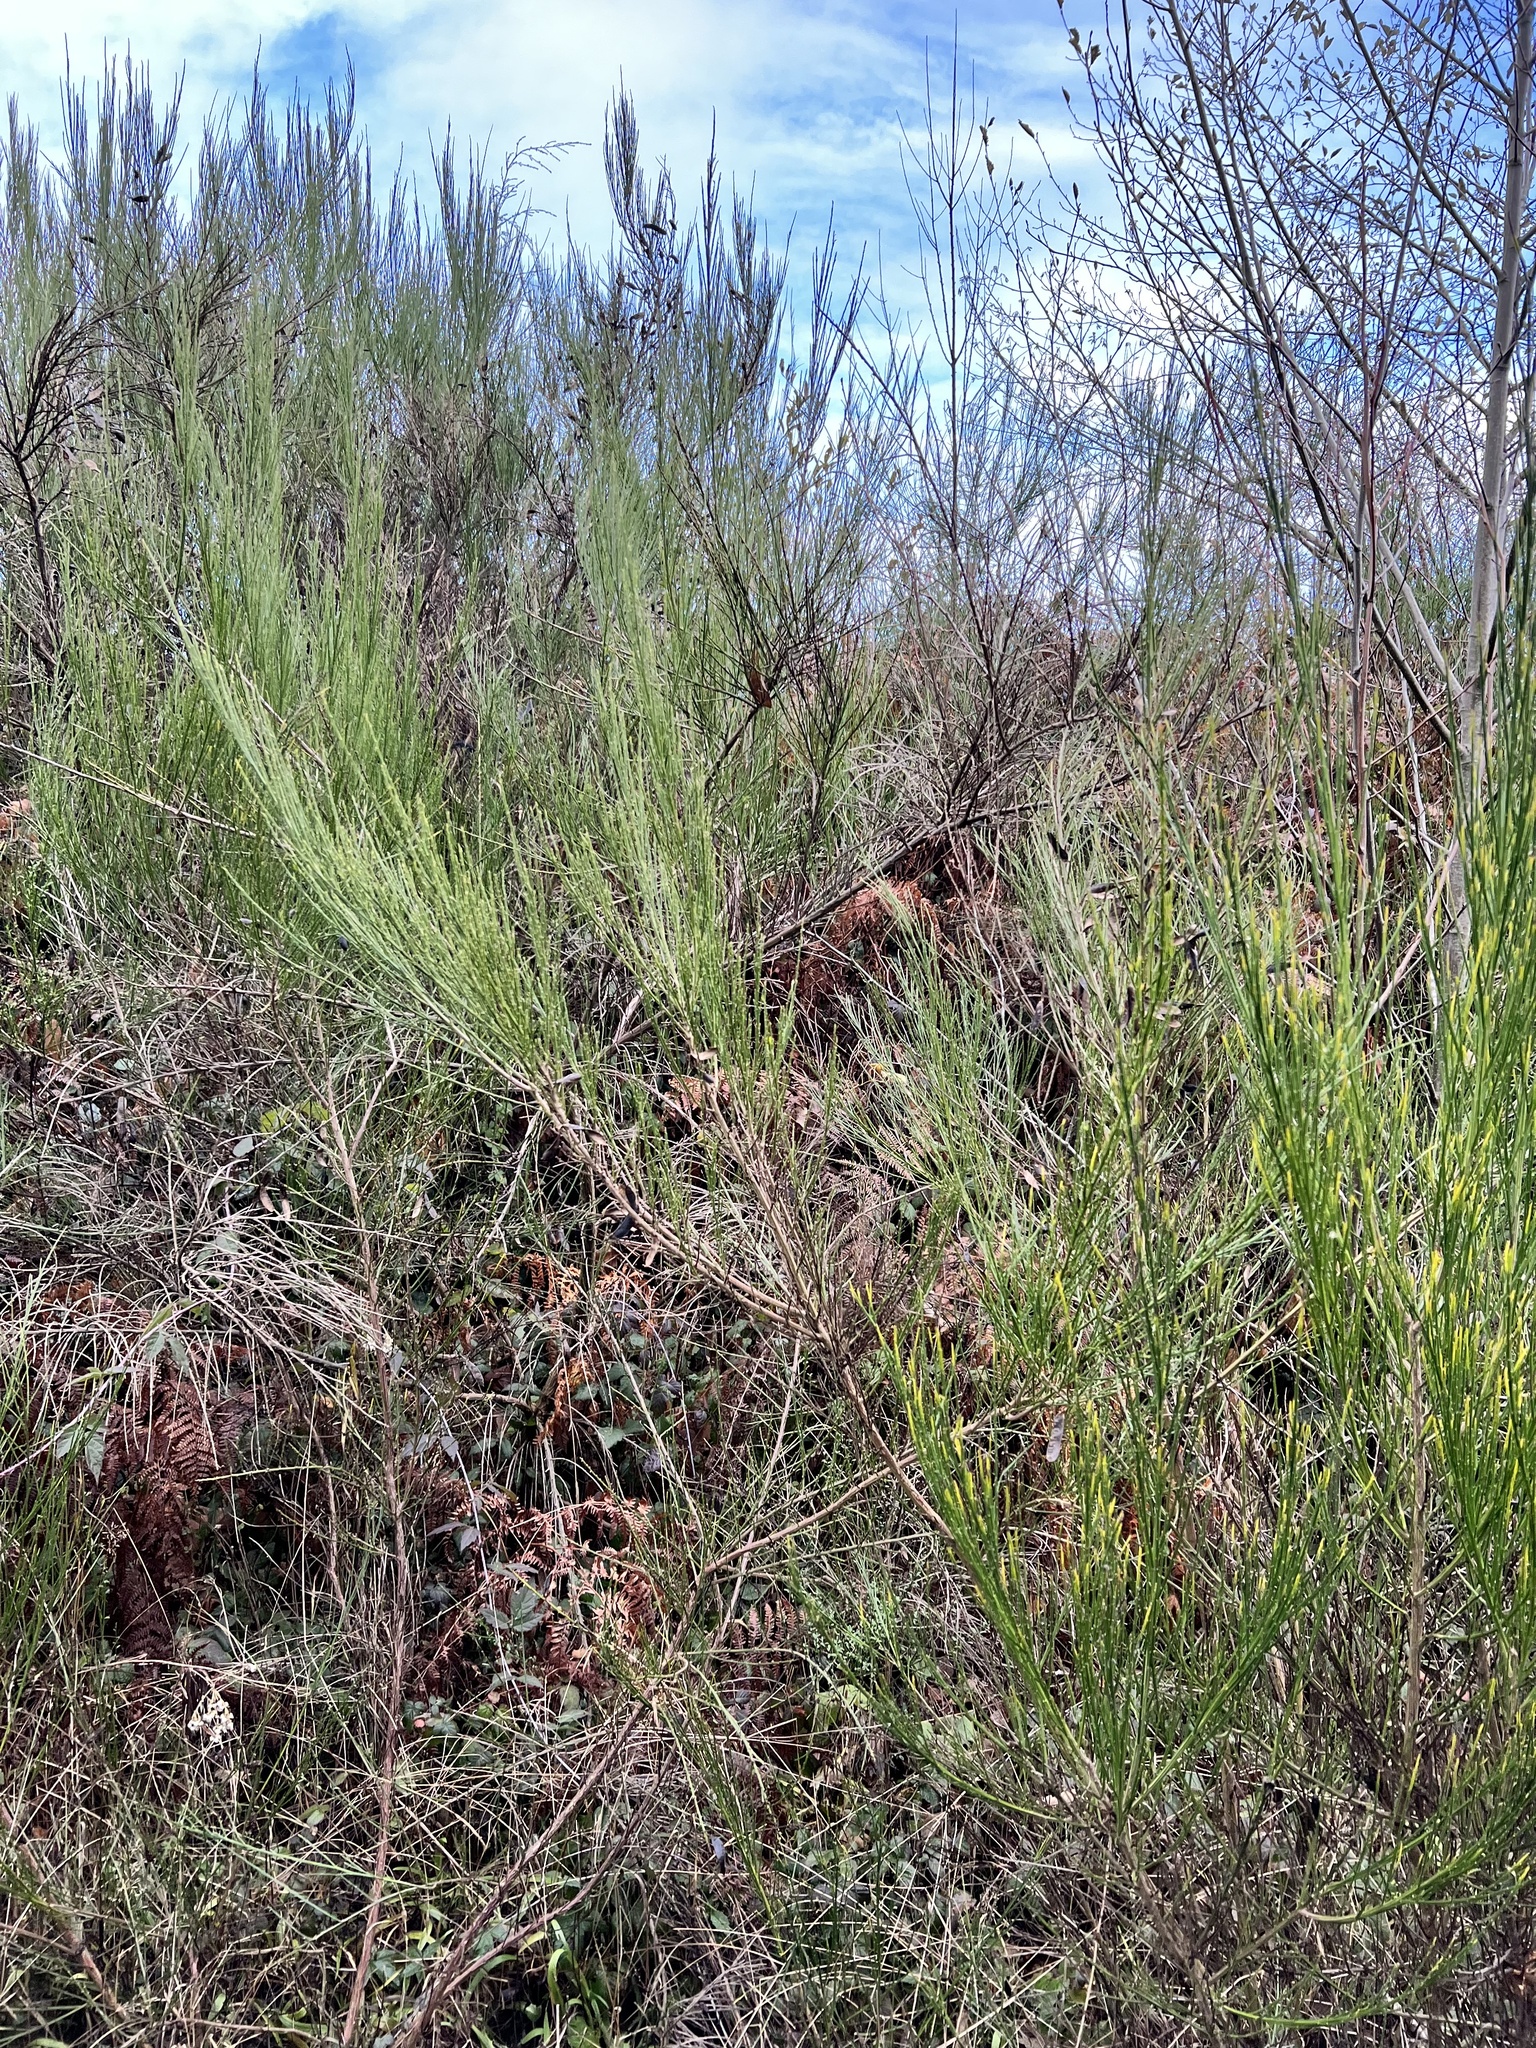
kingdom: Plantae
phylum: Tracheophyta
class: Magnoliopsida
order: Fabales
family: Fabaceae
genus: Cytisus
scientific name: Cytisus scoparius
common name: Scotch broom
